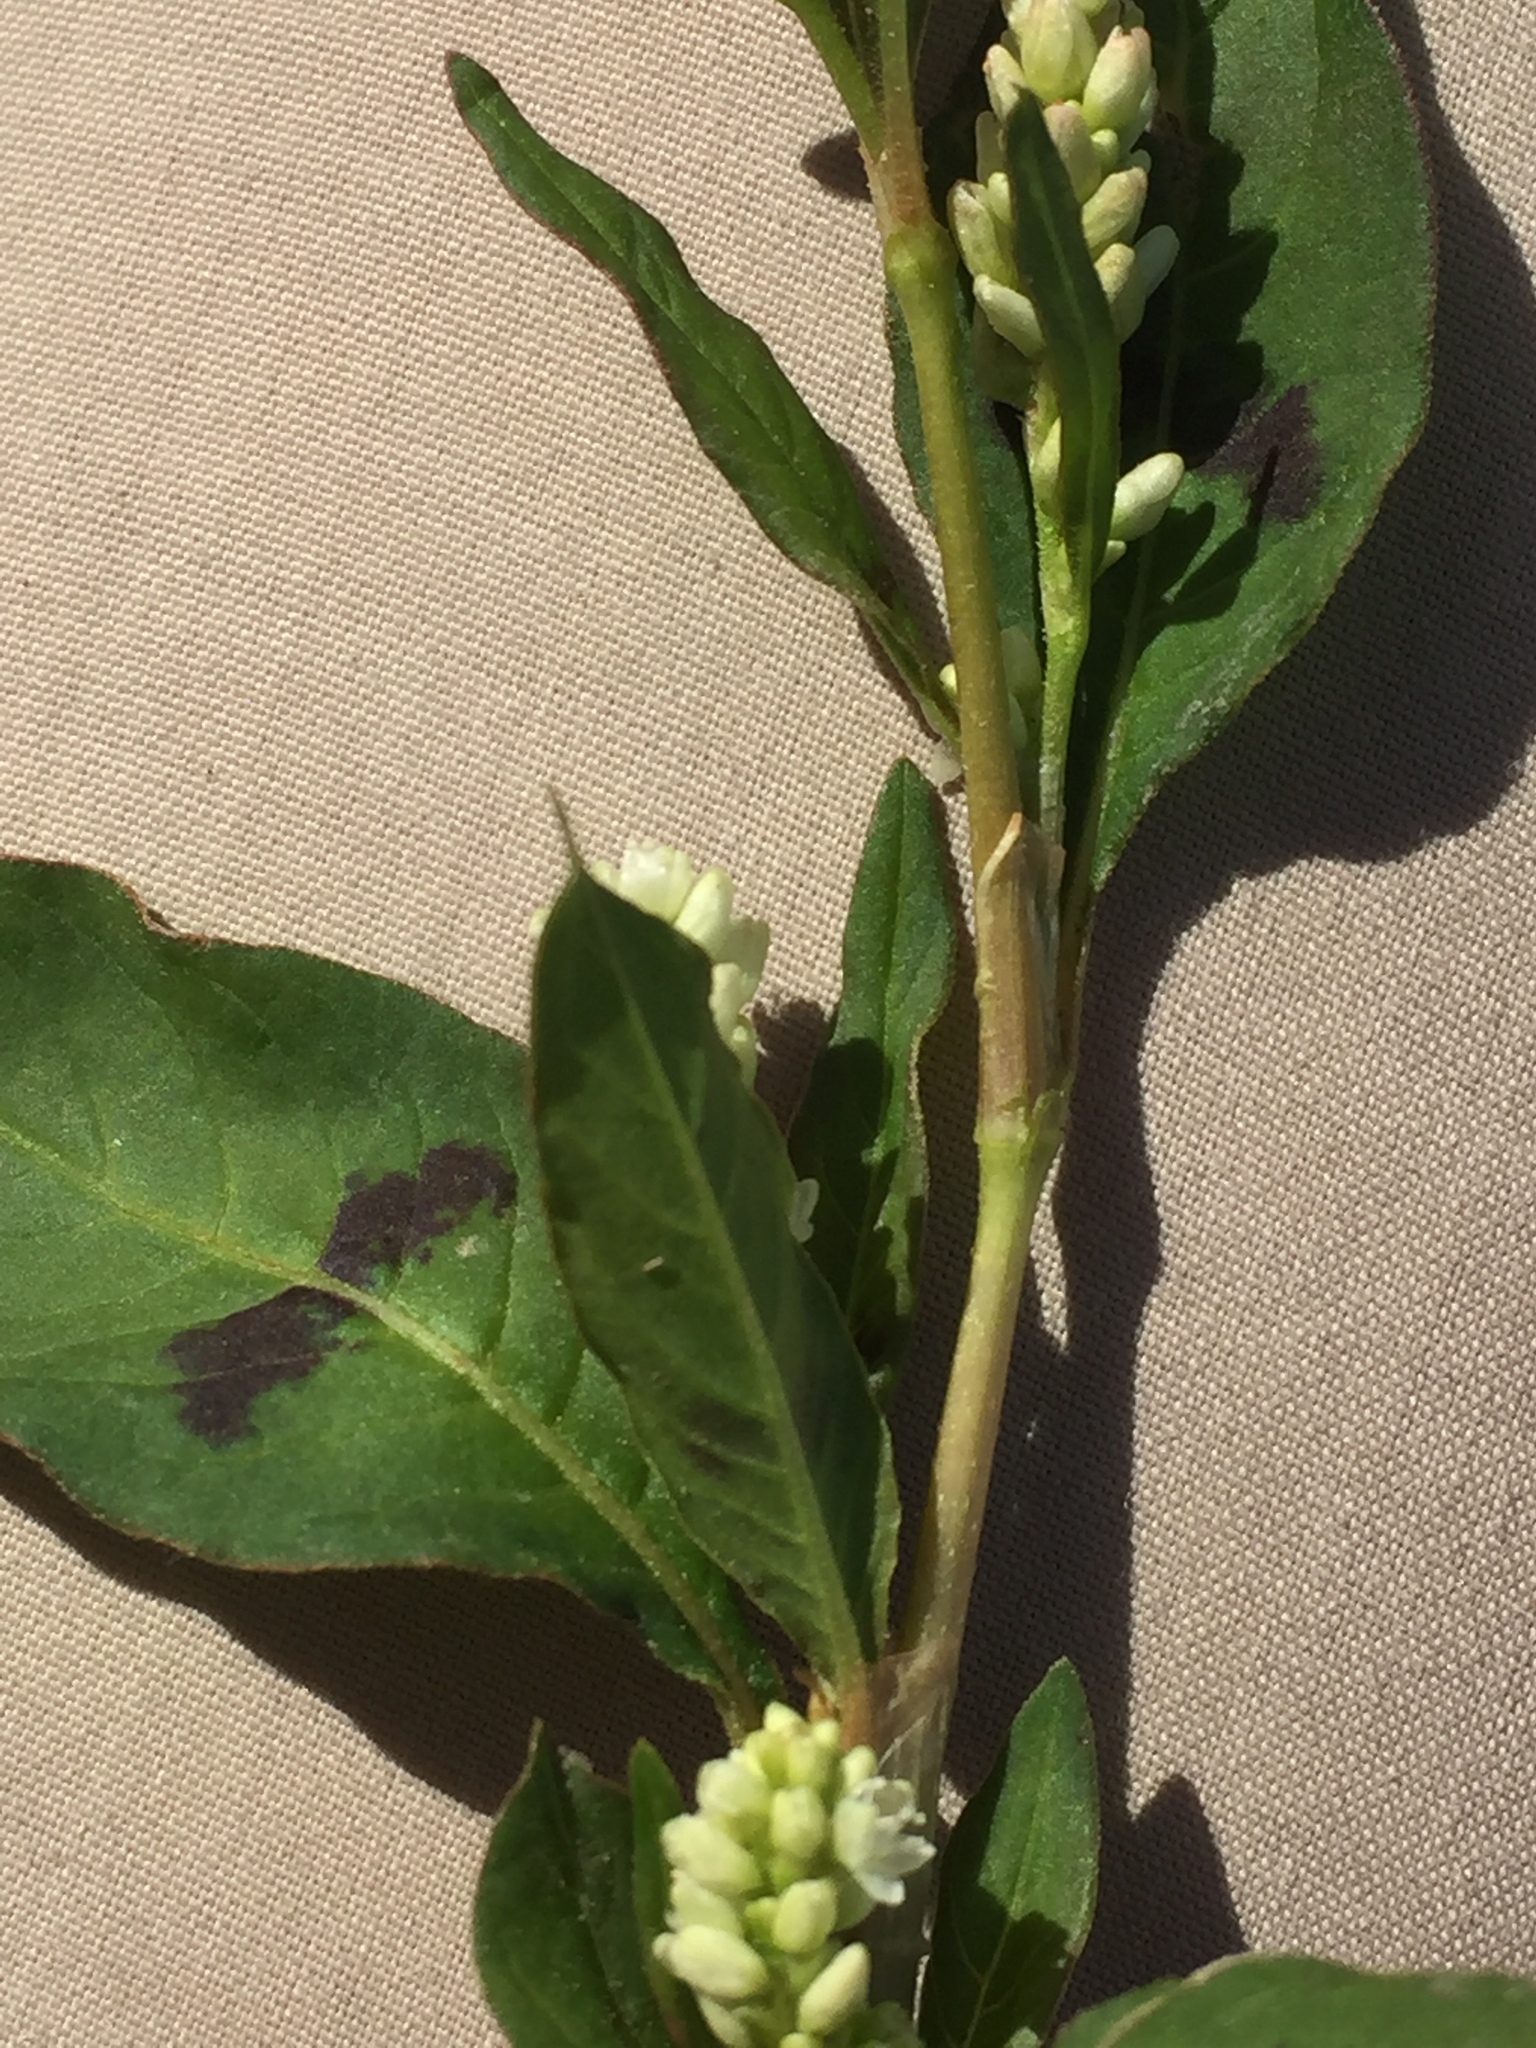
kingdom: Plantae
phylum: Tracheophyta
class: Magnoliopsida
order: Caryophyllales
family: Polygonaceae
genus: Persicaria
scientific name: Persicaria lapathifolia
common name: Curlytop knotweed
